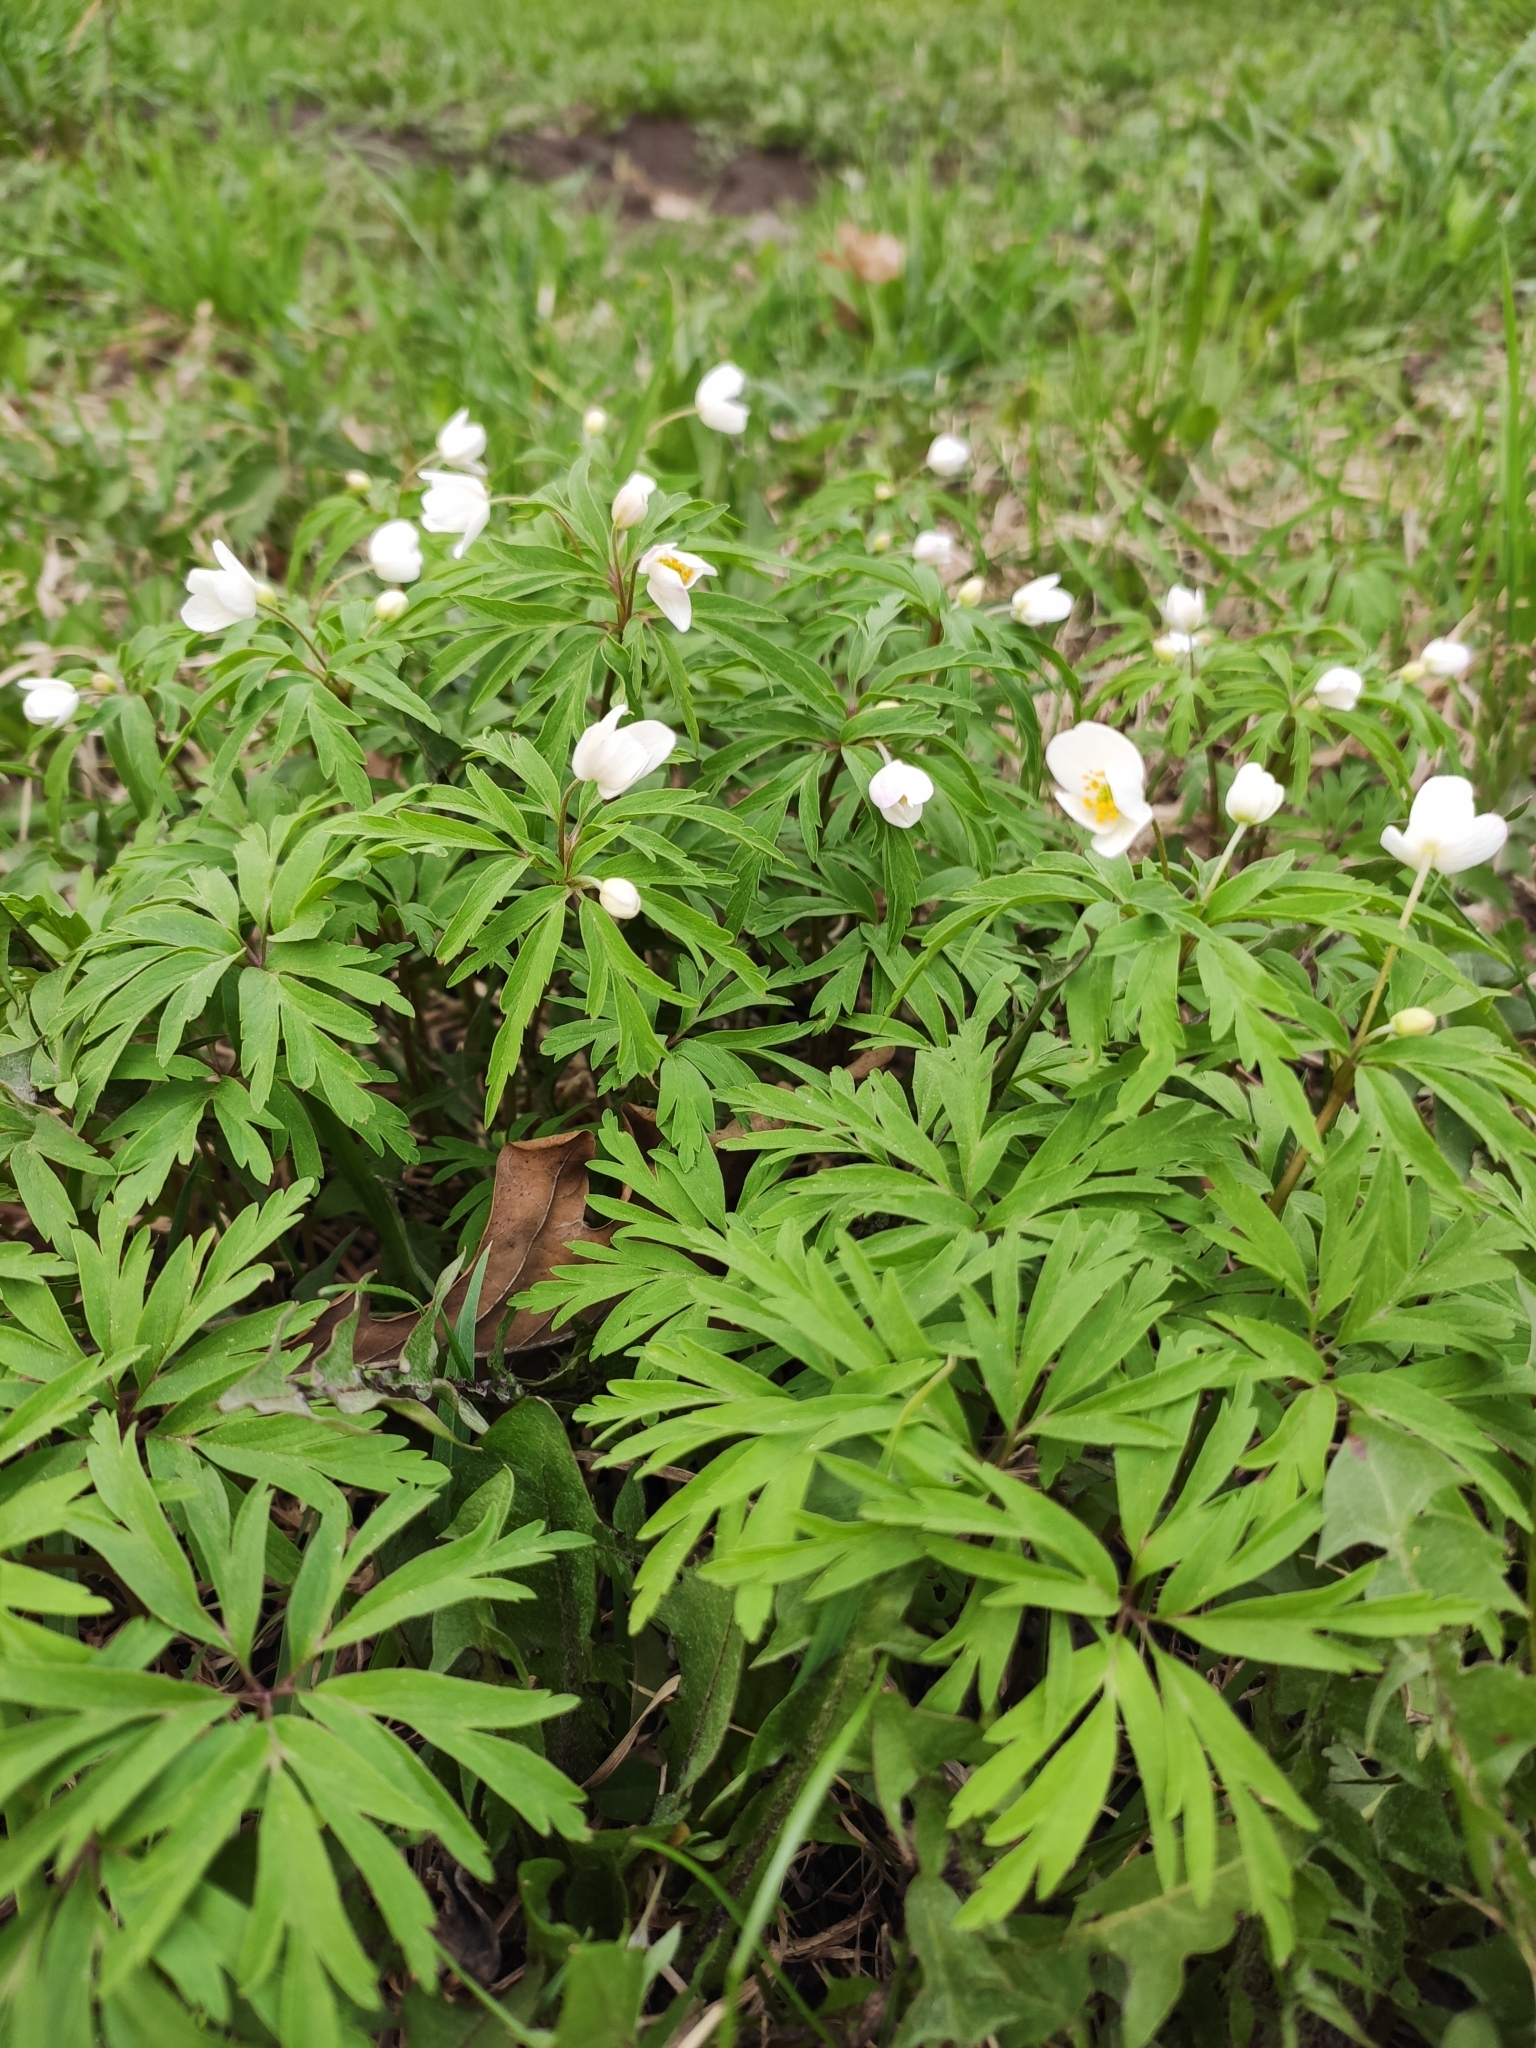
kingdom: Plantae
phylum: Tracheophyta
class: Magnoliopsida
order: Ranunculales
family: Ranunculaceae
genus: Anemone
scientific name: Anemone caerulea
